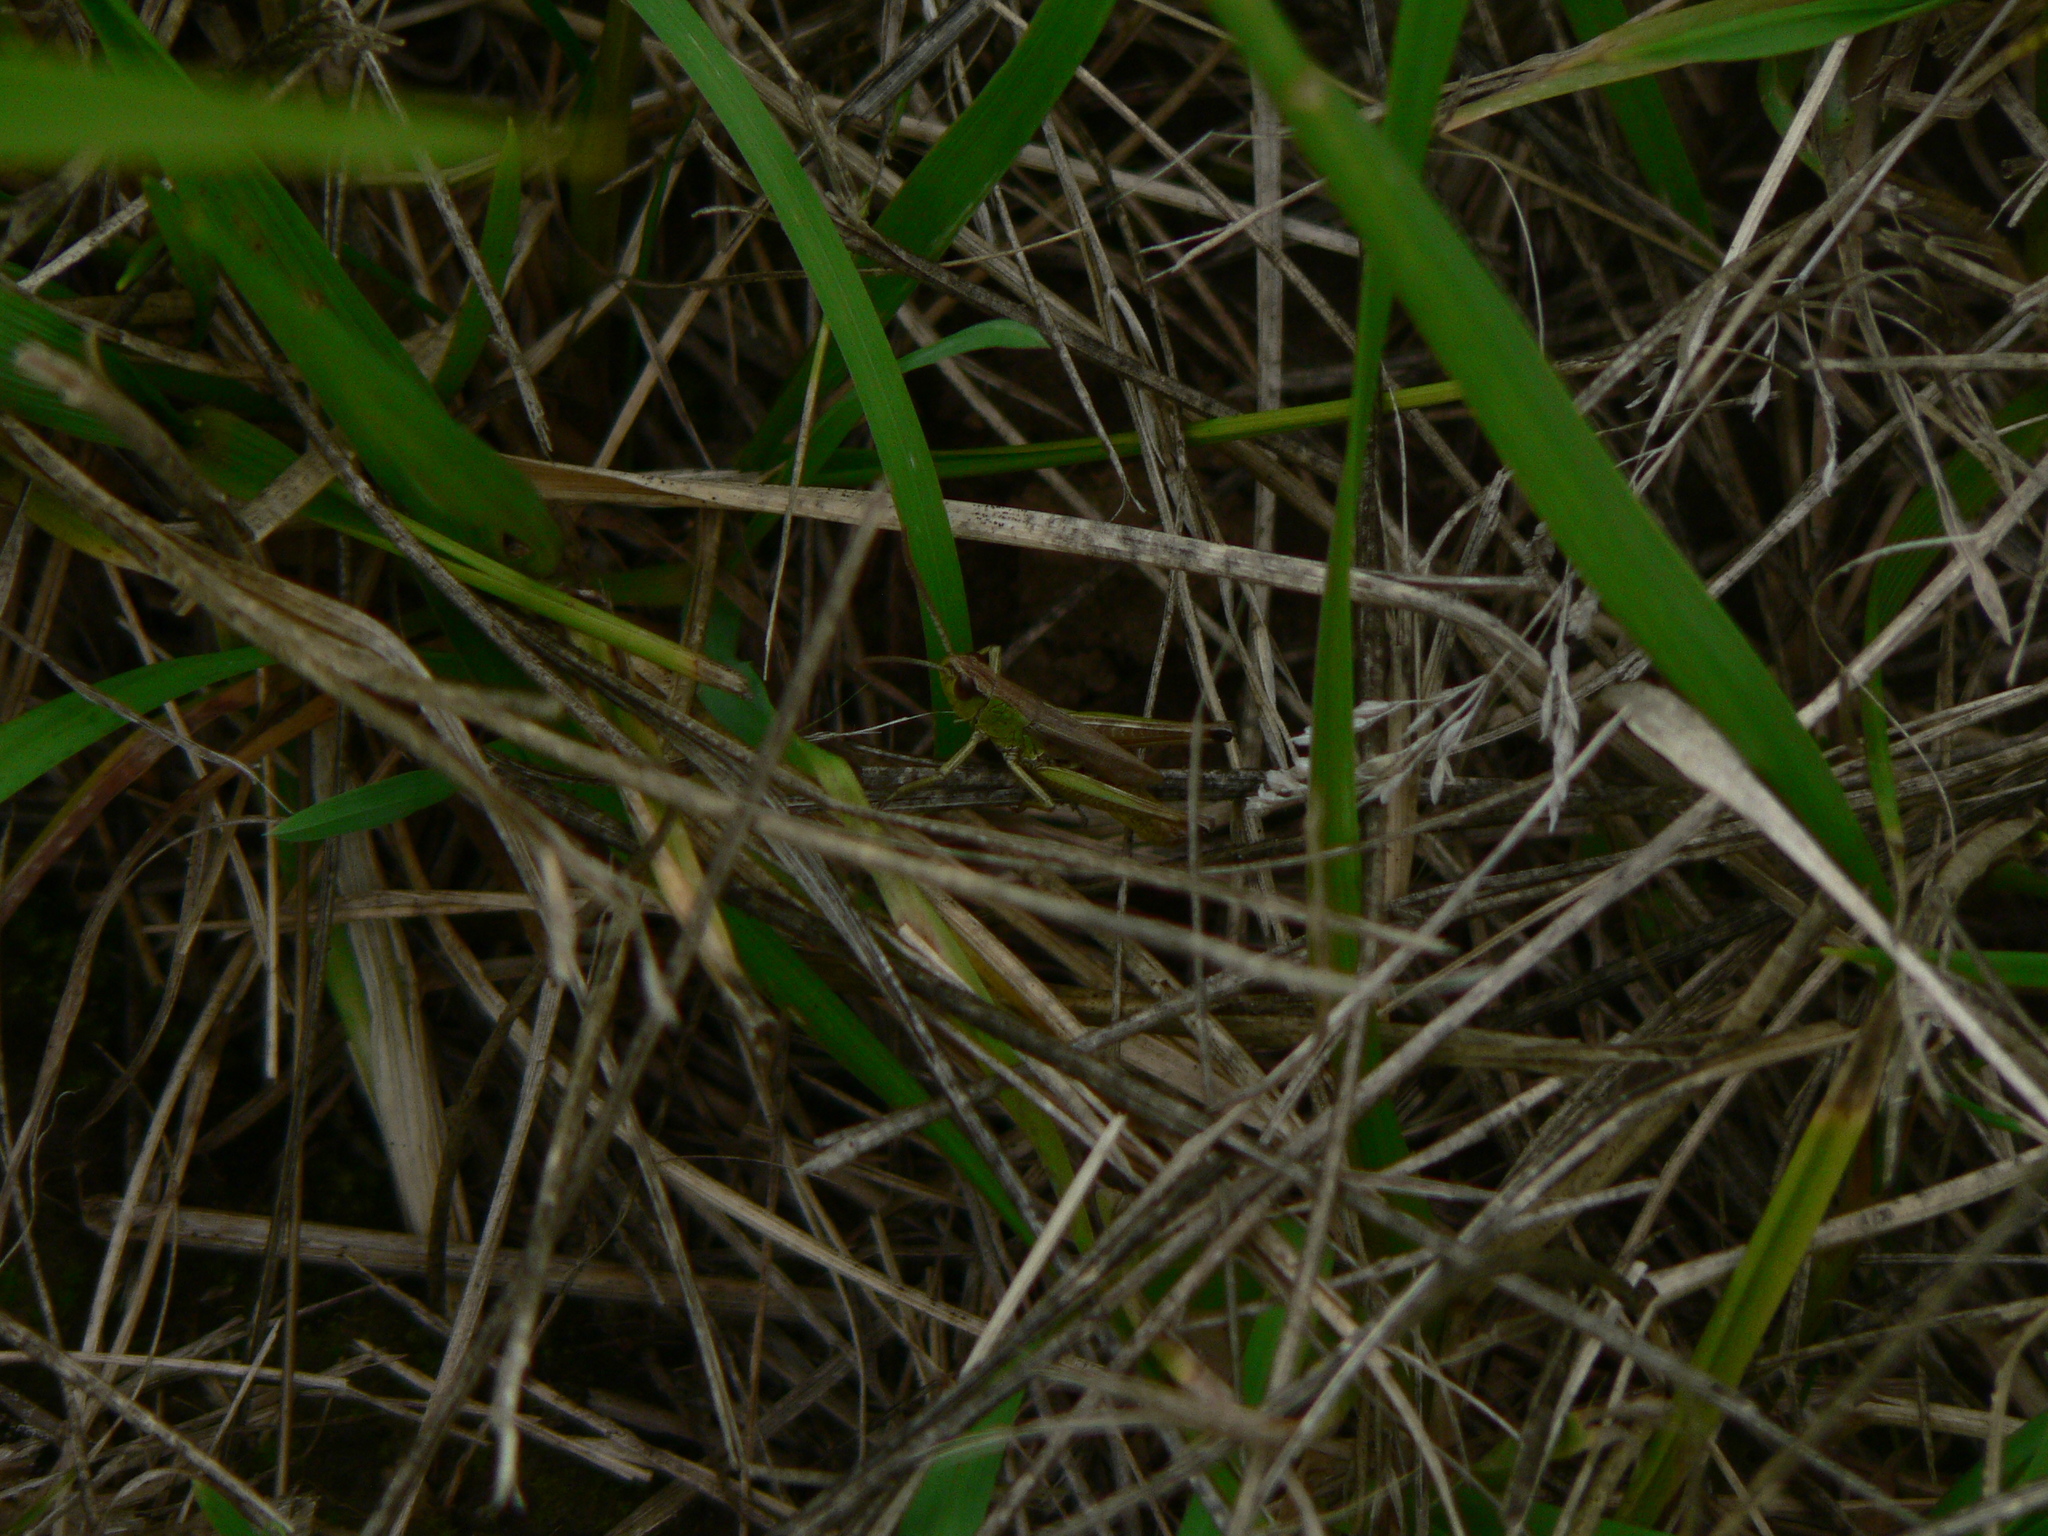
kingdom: Animalia
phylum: Arthropoda
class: Insecta
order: Orthoptera
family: Acrididae
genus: Pseudochorthippus
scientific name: Pseudochorthippus parallelus
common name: Meadow grasshopper
